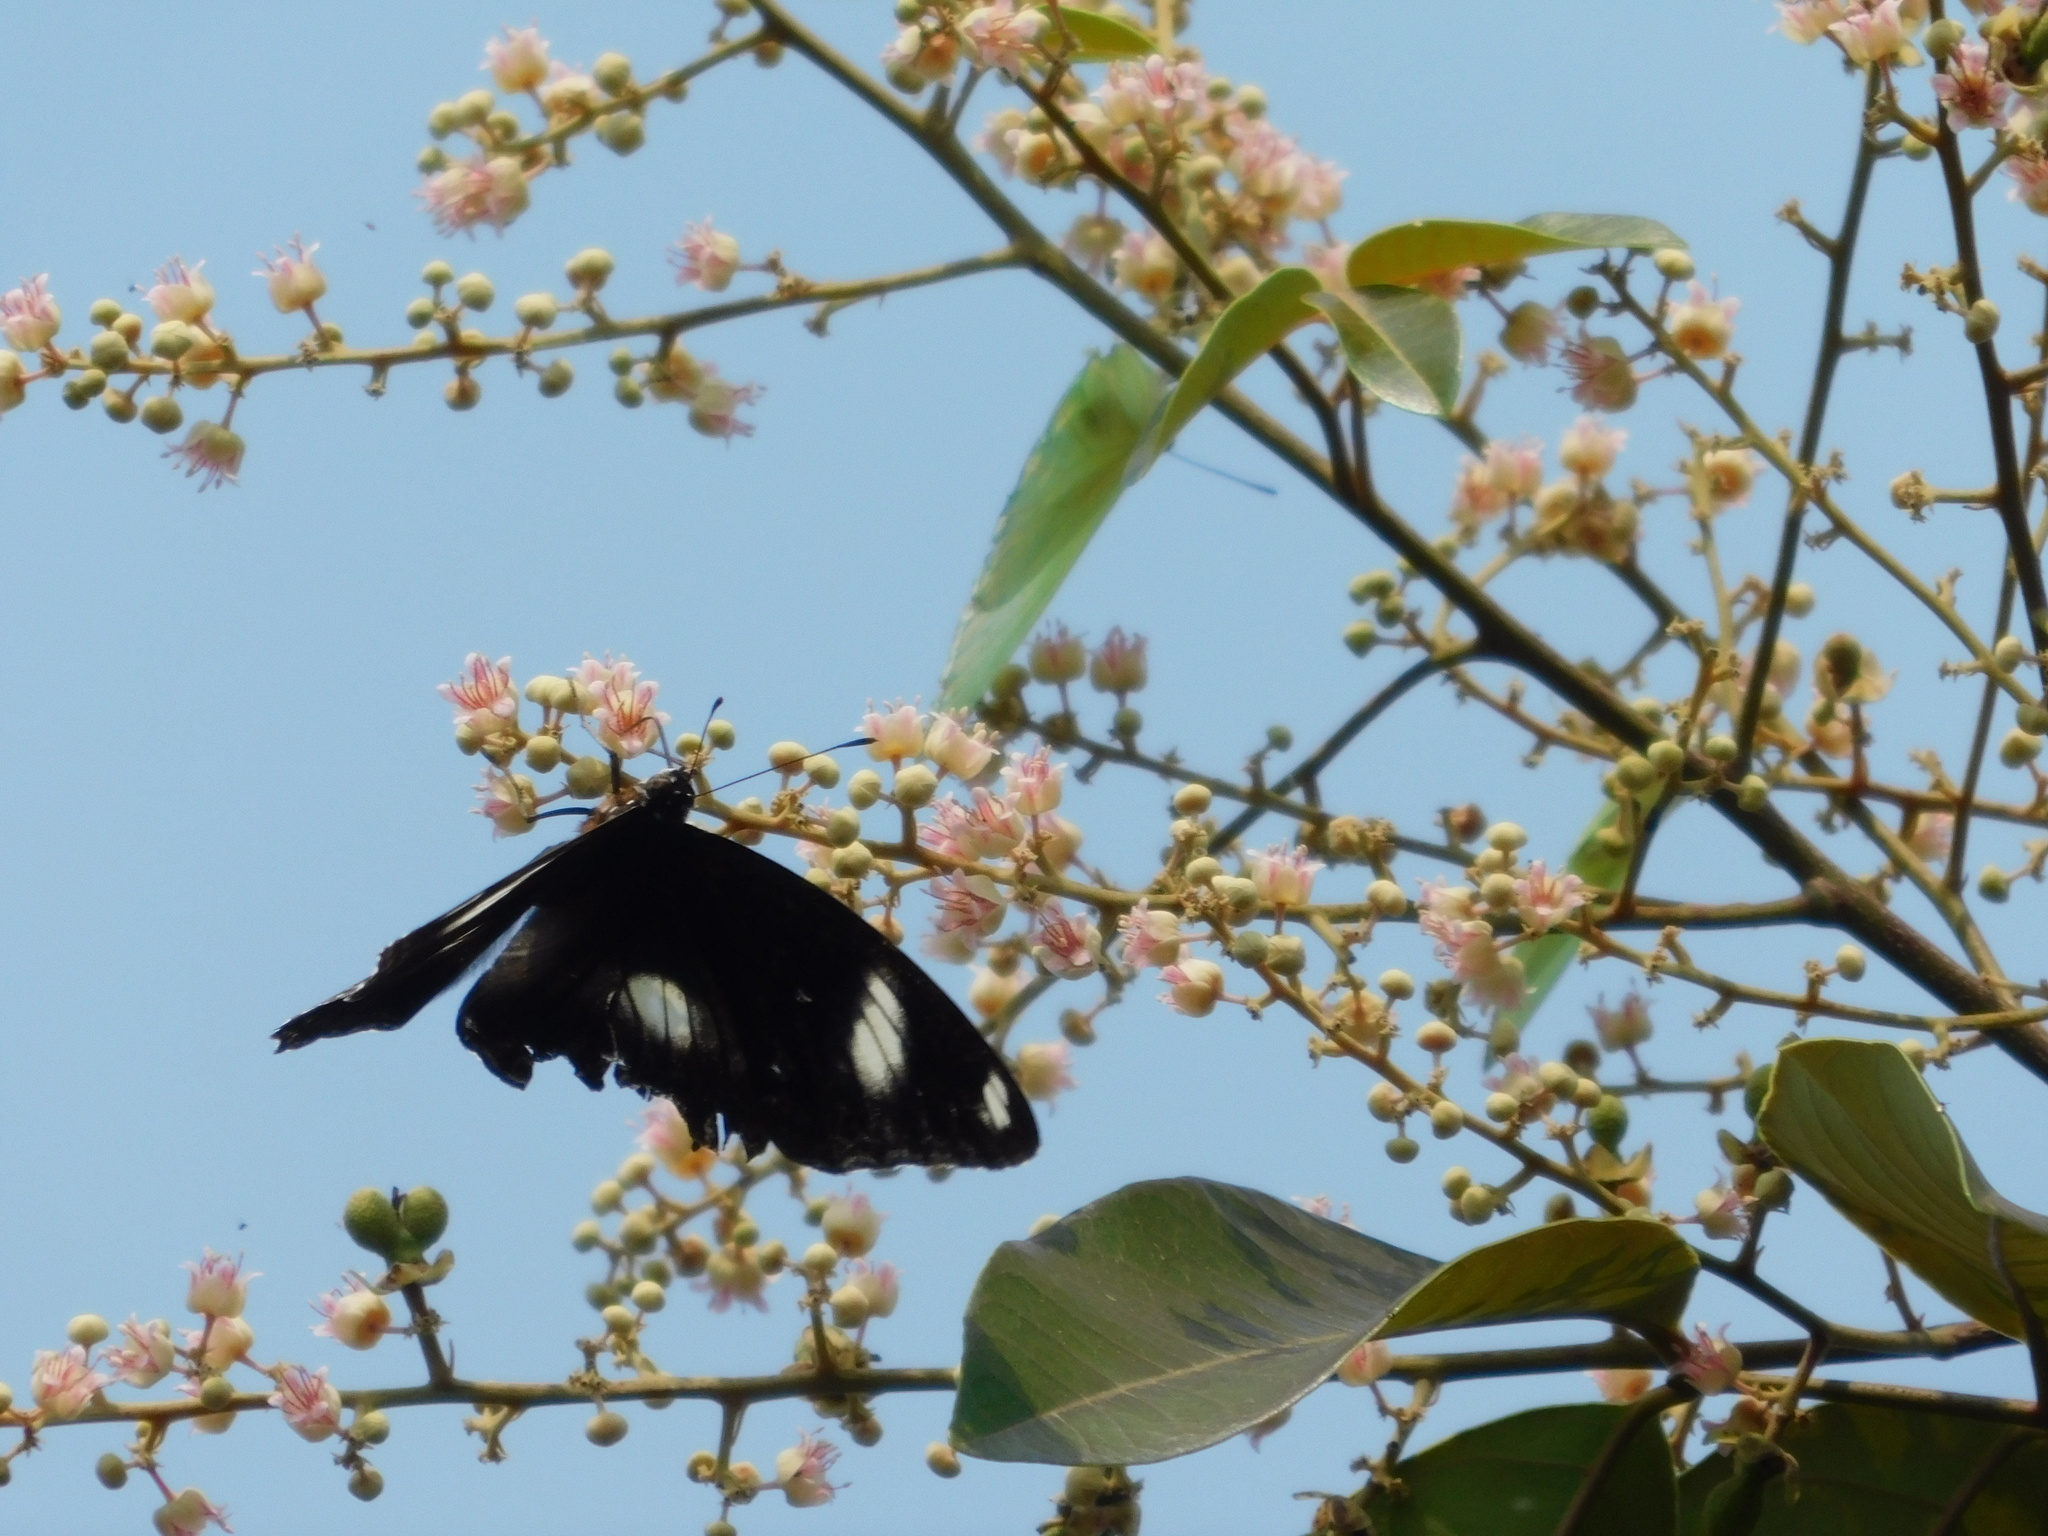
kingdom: Animalia
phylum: Arthropoda
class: Insecta
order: Lepidoptera
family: Nymphalidae
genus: Hypolimnas
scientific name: Hypolimnas bolina
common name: Great eggfly
